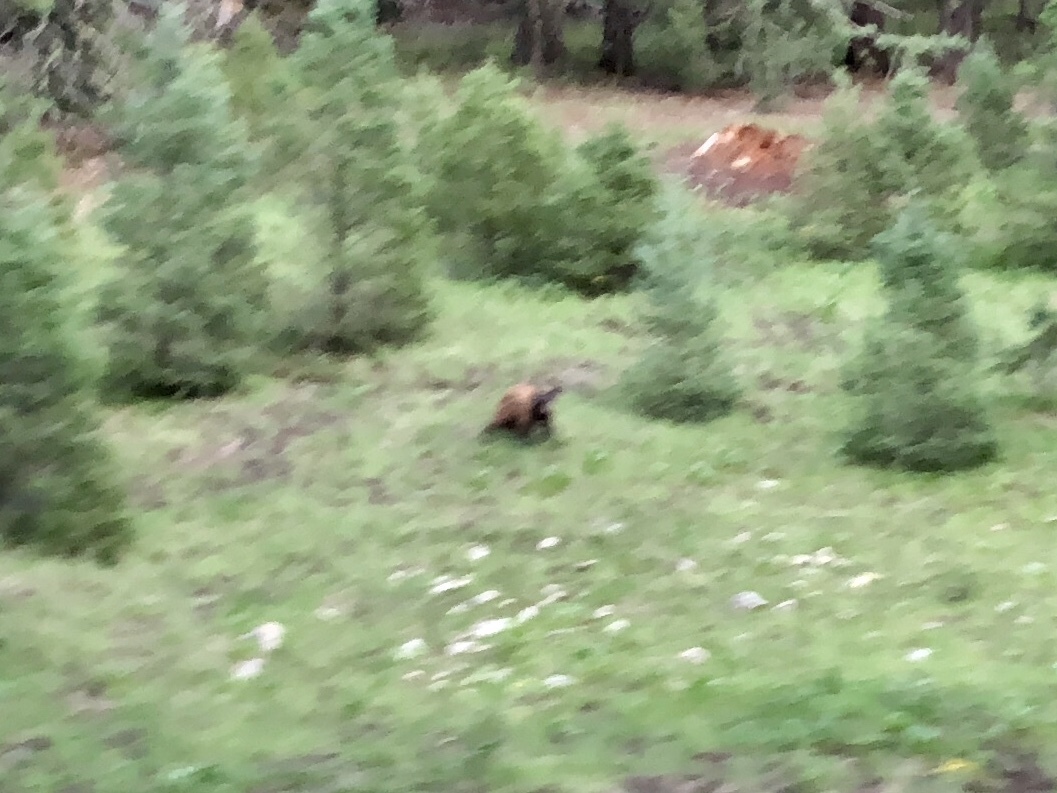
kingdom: Animalia
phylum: Chordata
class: Mammalia
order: Carnivora
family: Ursidae
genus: Ursus
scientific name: Ursus americanus
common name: American black bear
